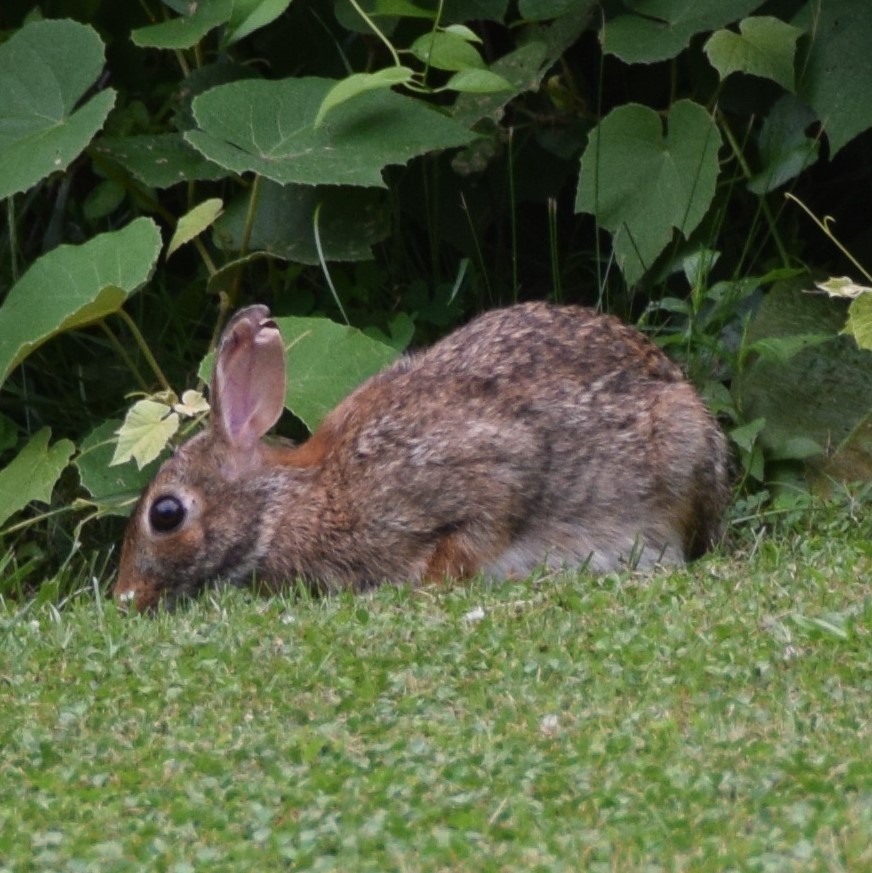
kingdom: Animalia
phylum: Chordata
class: Mammalia
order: Lagomorpha
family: Leporidae
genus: Sylvilagus
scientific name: Sylvilagus floridanus
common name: Eastern cottontail
